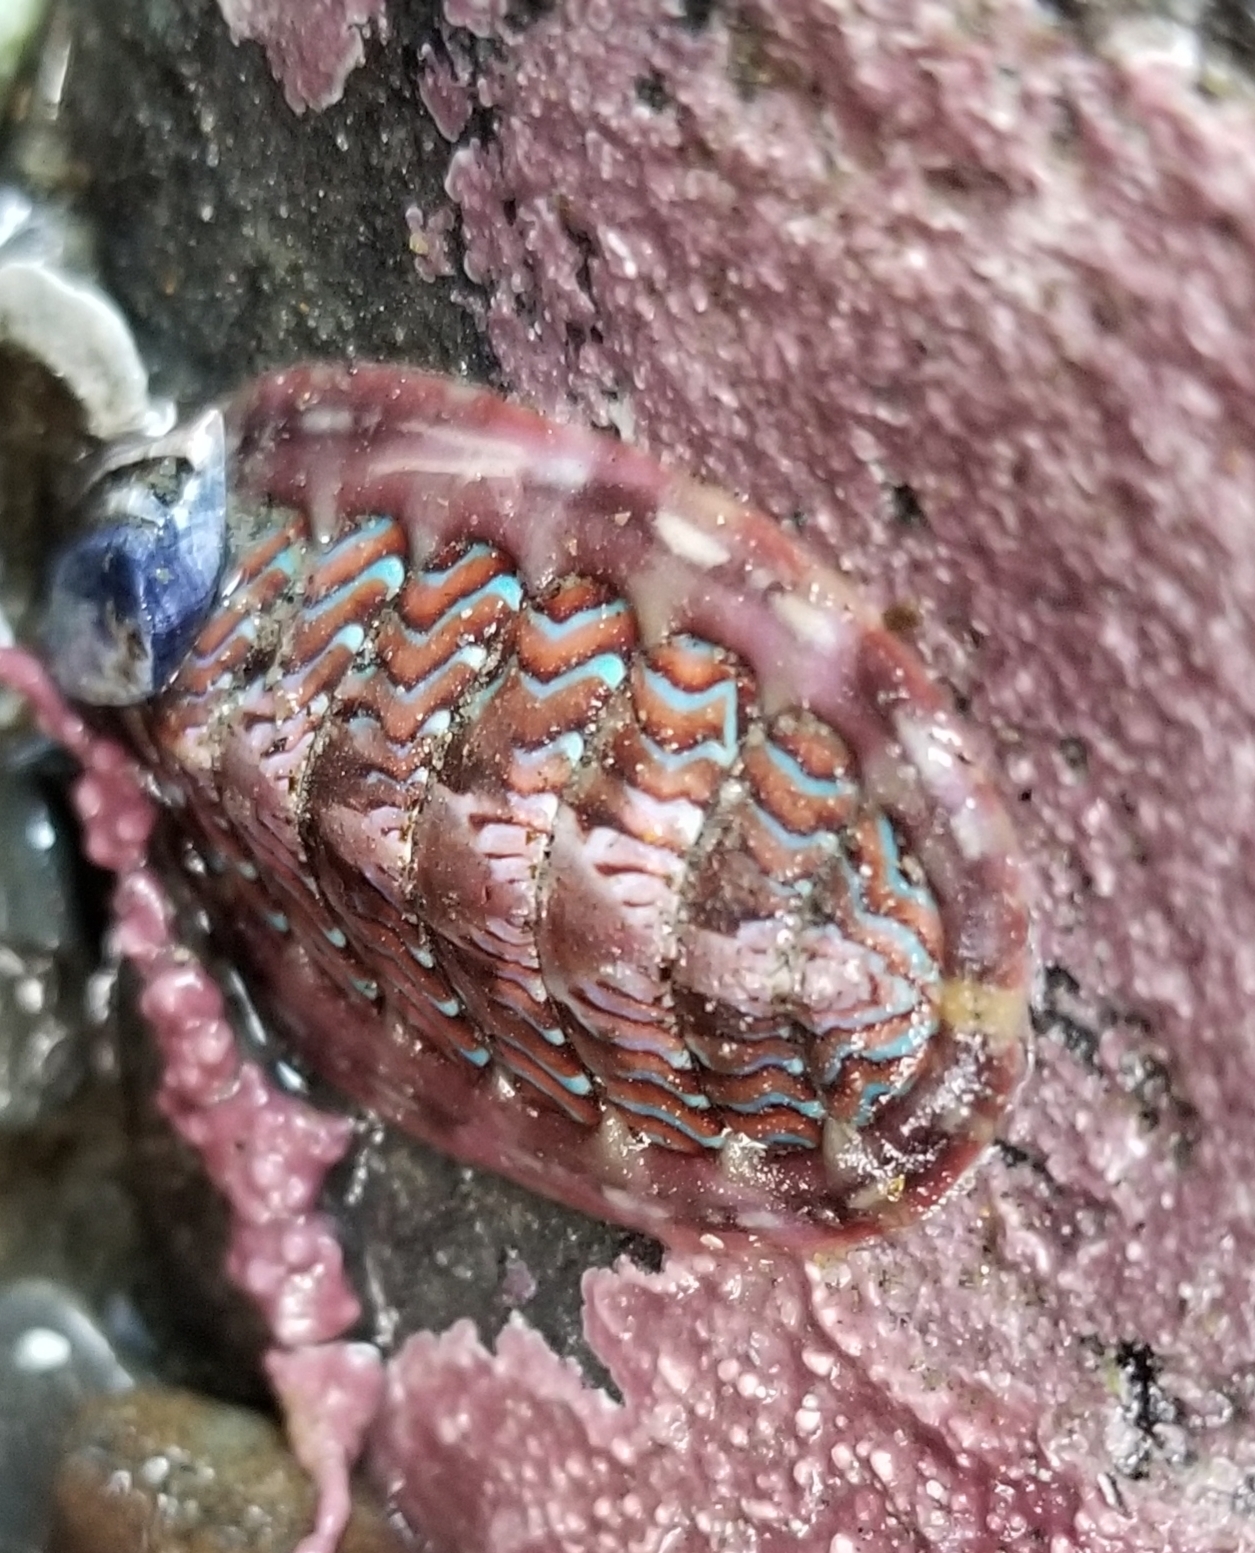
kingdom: Animalia
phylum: Mollusca
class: Polyplacophora
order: Chitonida
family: Tonicellidae
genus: Tonicella
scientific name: Tonicella lokii
